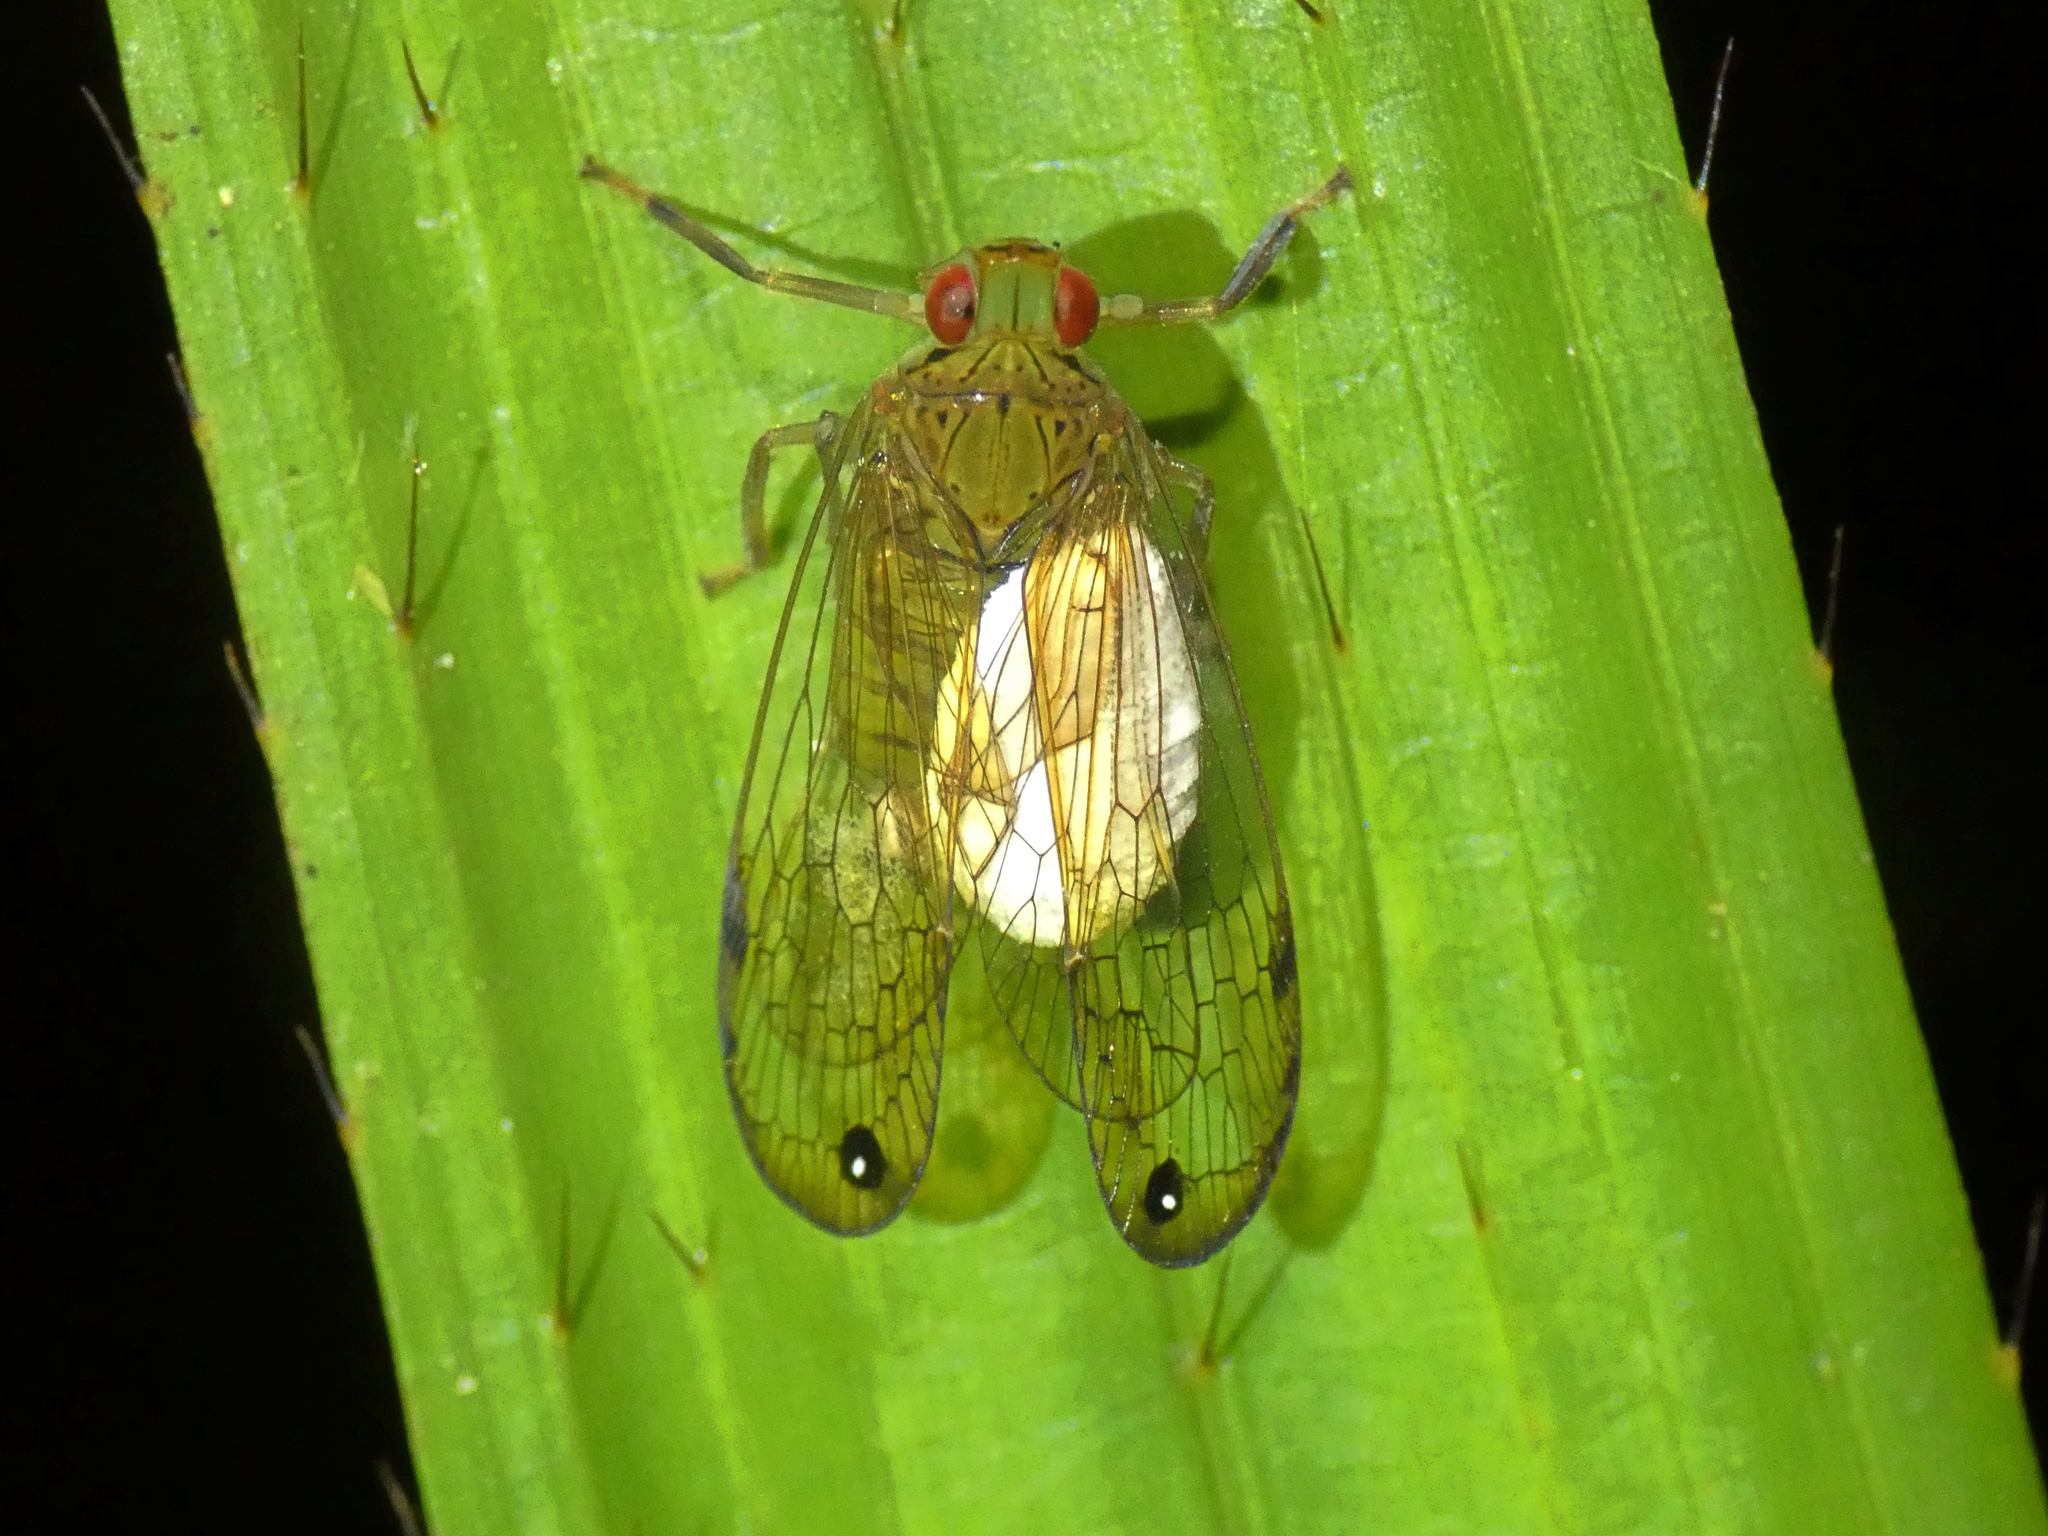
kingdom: Animalia
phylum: Arthropoda
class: Insecta
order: Hemiptera
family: Lophopidae
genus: Magia
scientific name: Magia stuarti
